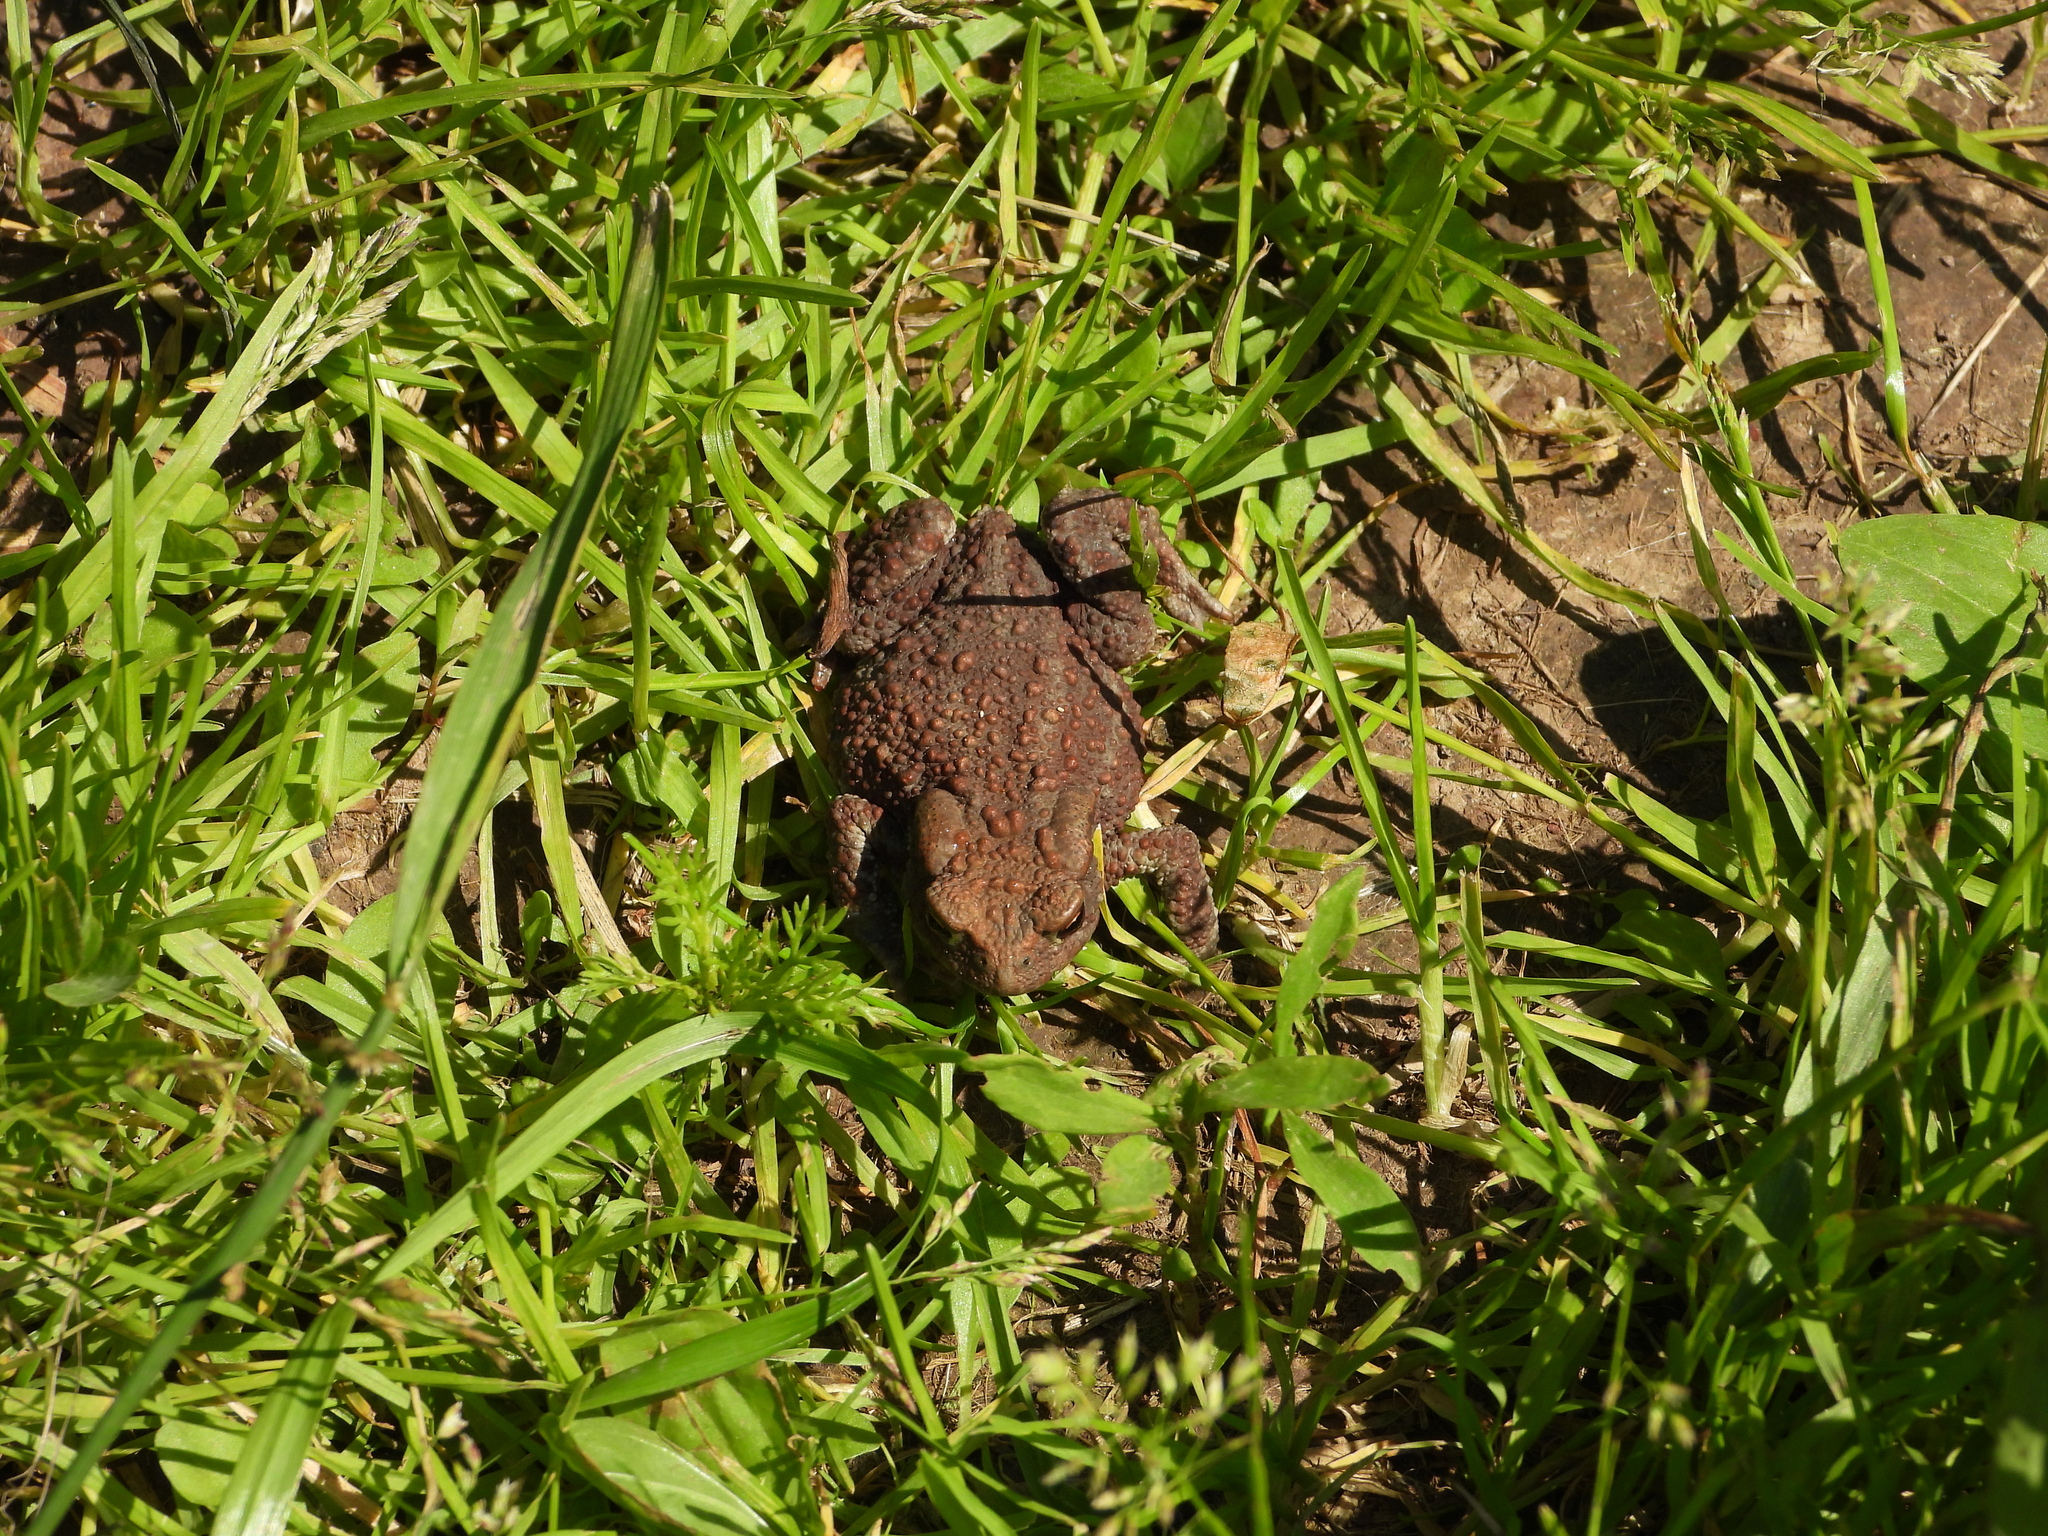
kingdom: Animalia
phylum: Chordata
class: Amphibia
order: Anura
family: Bufonidae
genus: Bufo
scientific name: Bufo bufo
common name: Common toad
